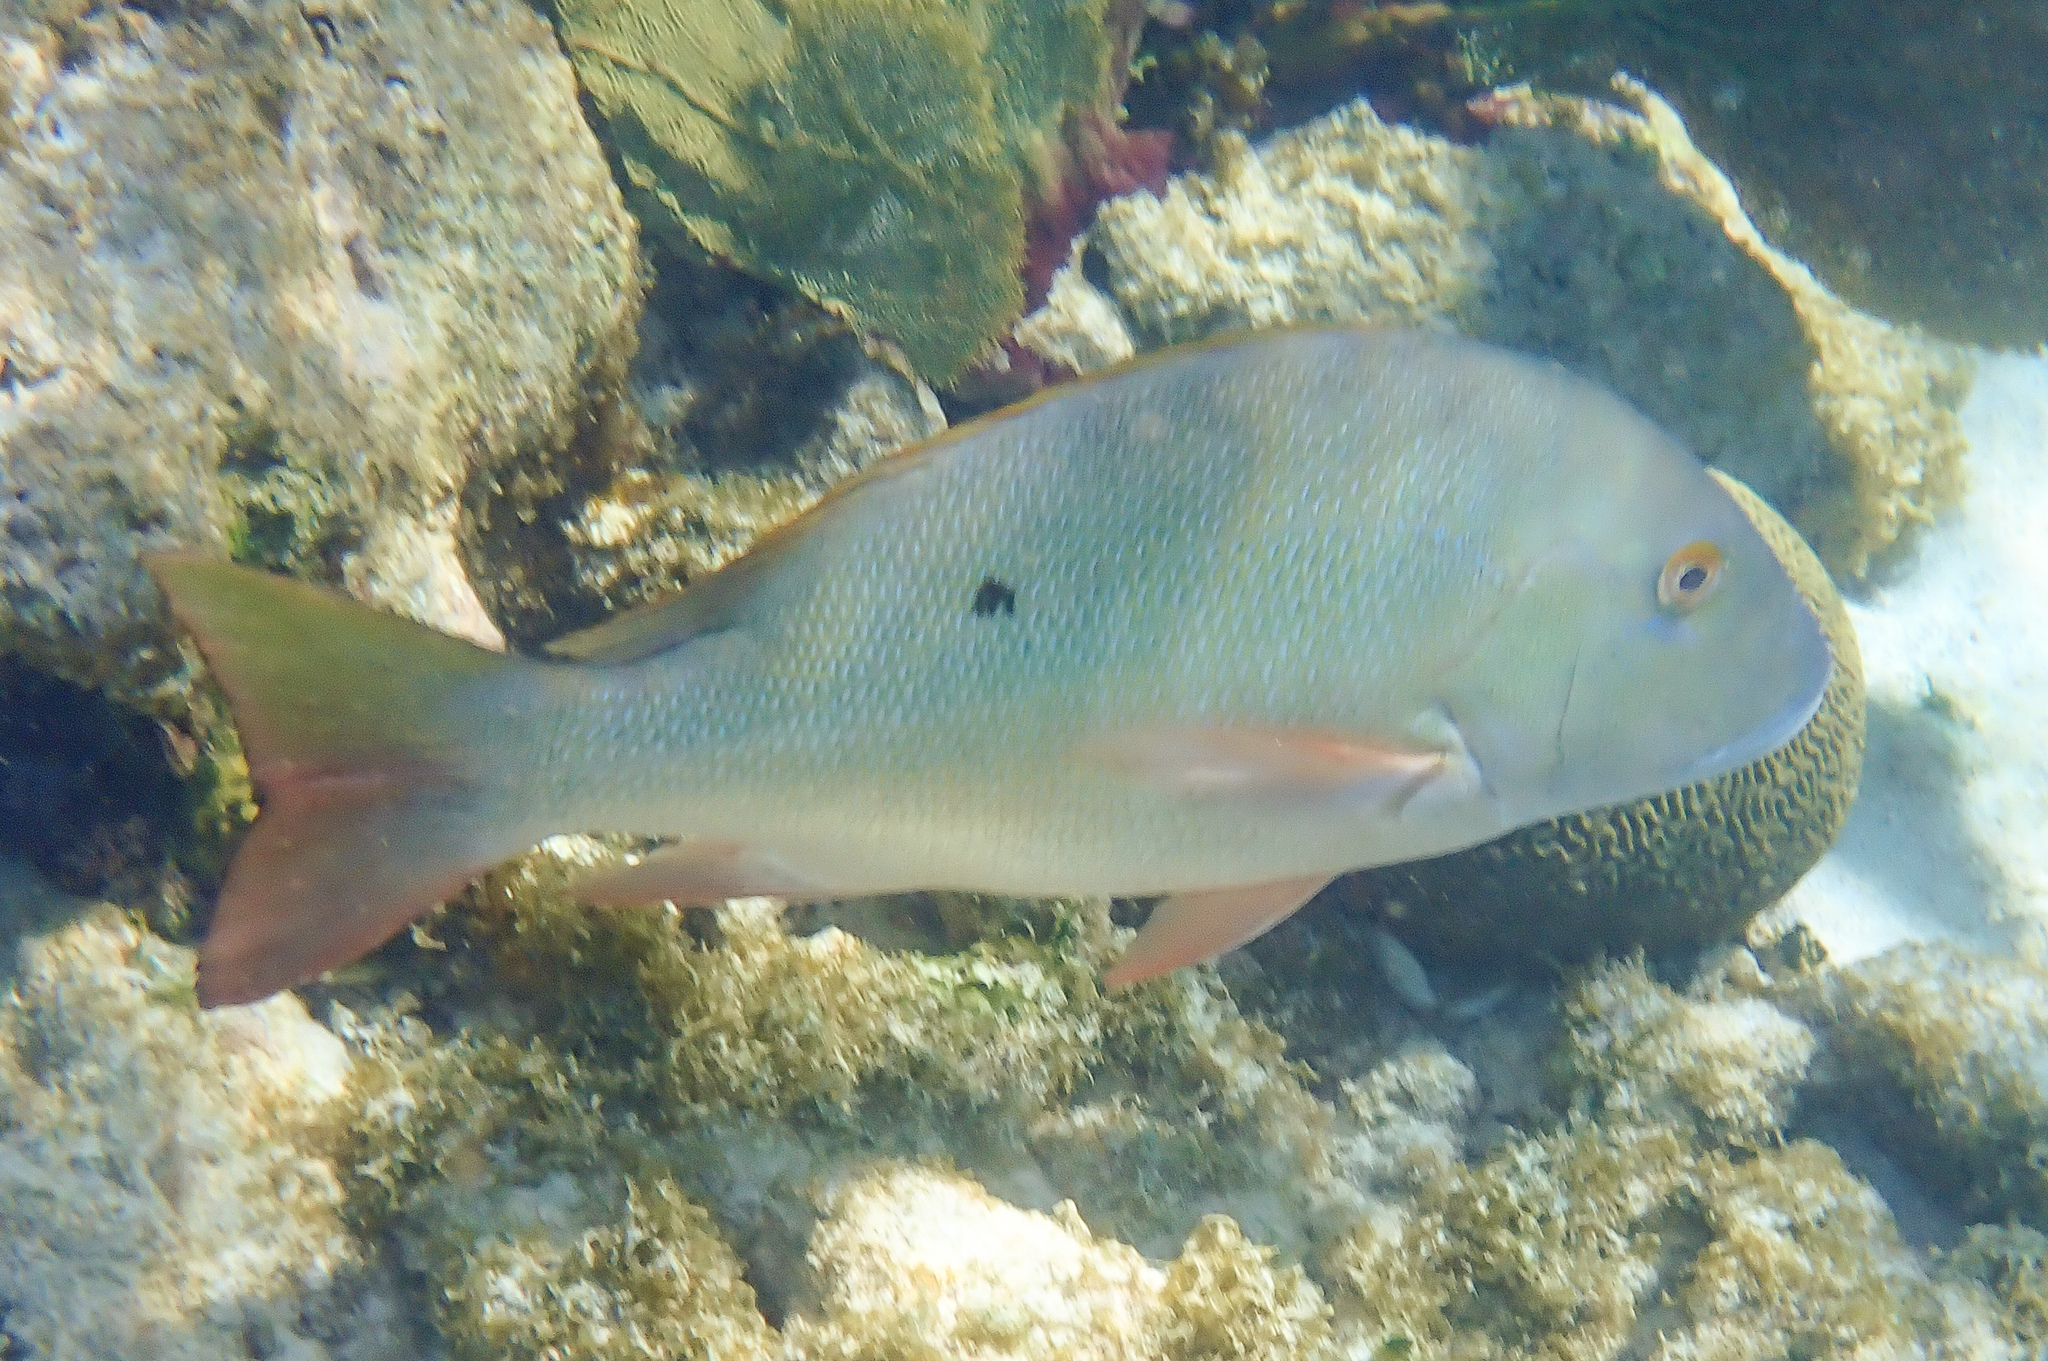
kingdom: Animalia
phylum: Chordata
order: Perciformes
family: Lutjanidae
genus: Lutjanus
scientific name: Lutjanus analis
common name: Mutton snapper
